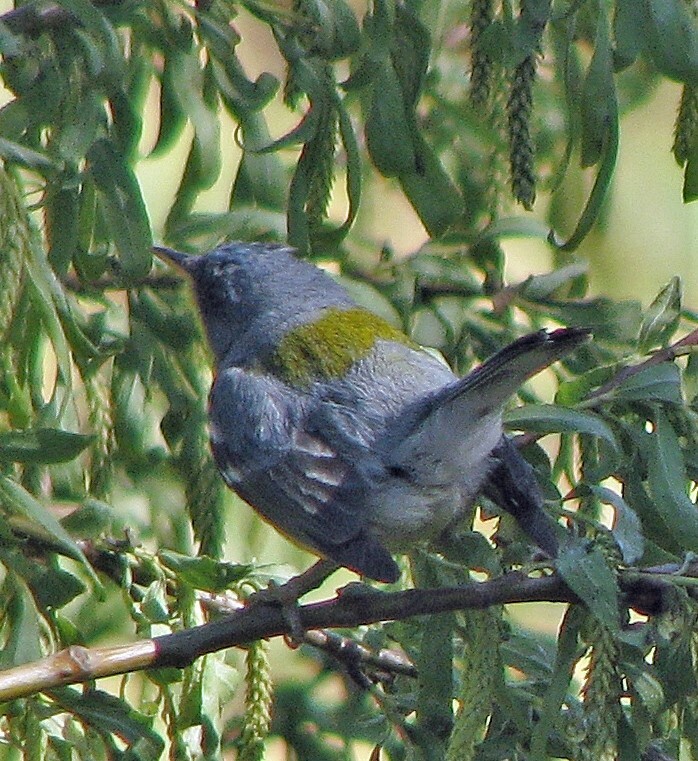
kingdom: Animalia
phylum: Chordata
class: Aves
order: Passeriformes
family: Parulidae
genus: Setophaga
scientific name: Setophaga pitiayumi
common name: Tropical parula
